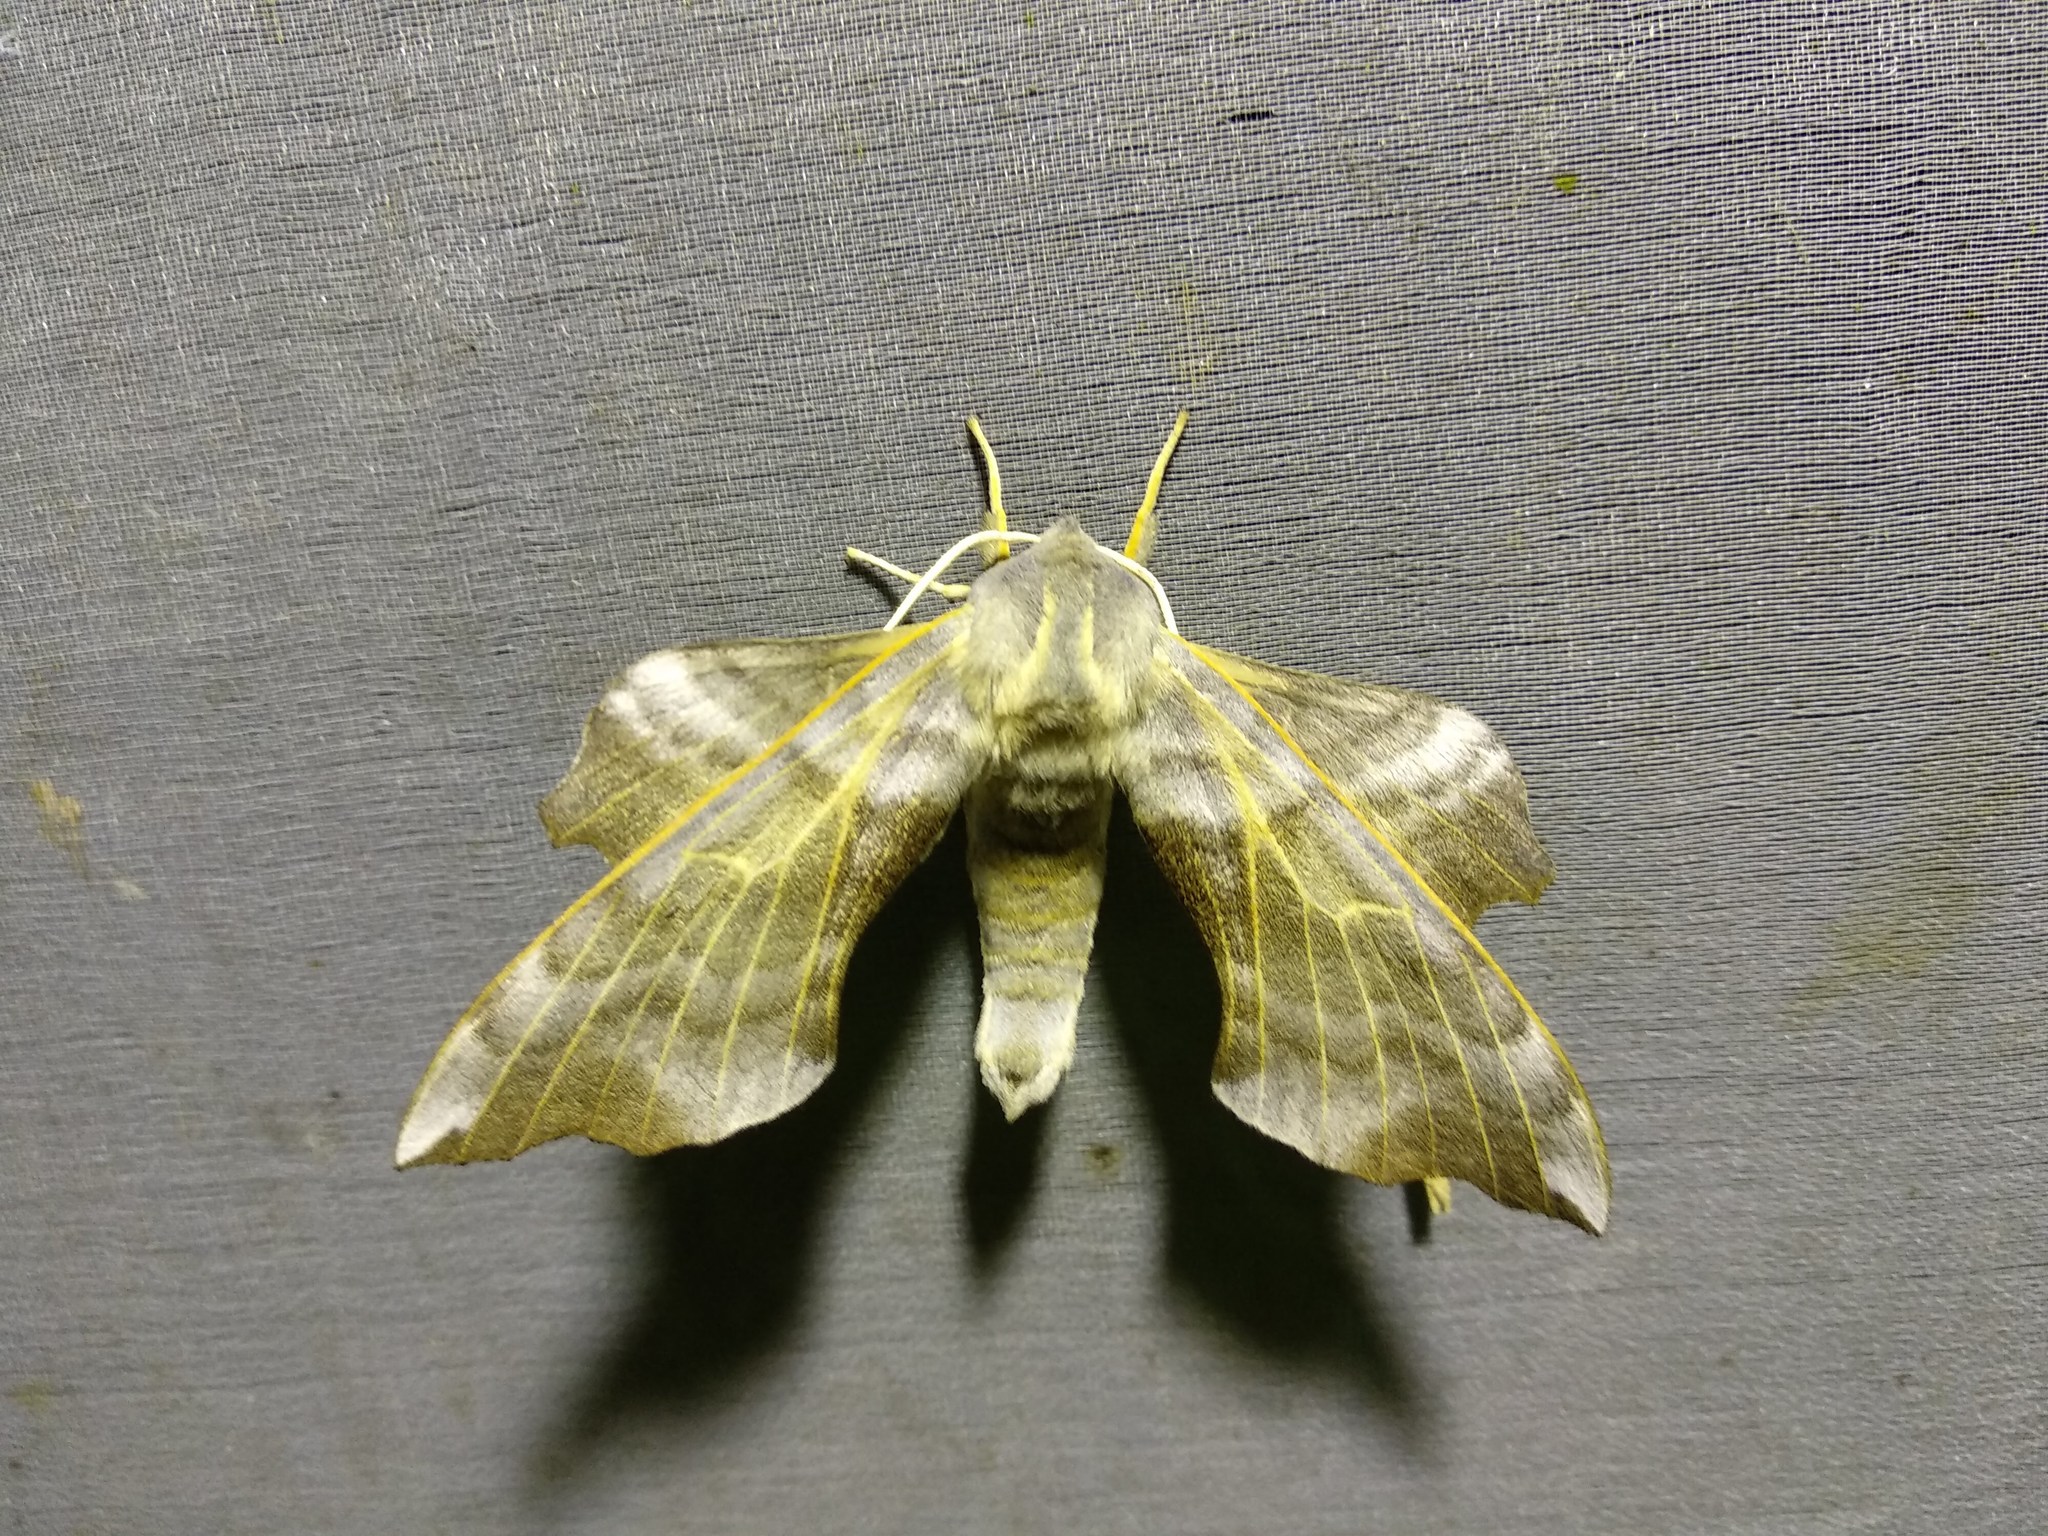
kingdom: Animalia
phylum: Arthropoda
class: Insecta
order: Lepidoptera
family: Sphingidae
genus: Laothoe
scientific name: Laothoe amurensis
